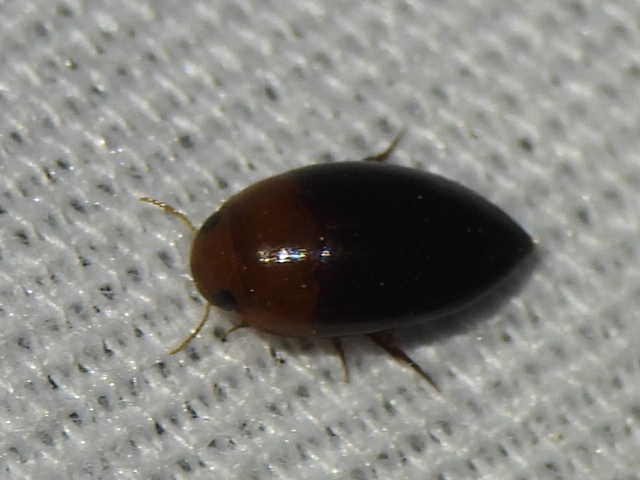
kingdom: Animalia
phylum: Arthropoda
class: Insecta
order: Coleoptera
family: Noteridae
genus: Hydrocanthus
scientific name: Hydrocanthus
